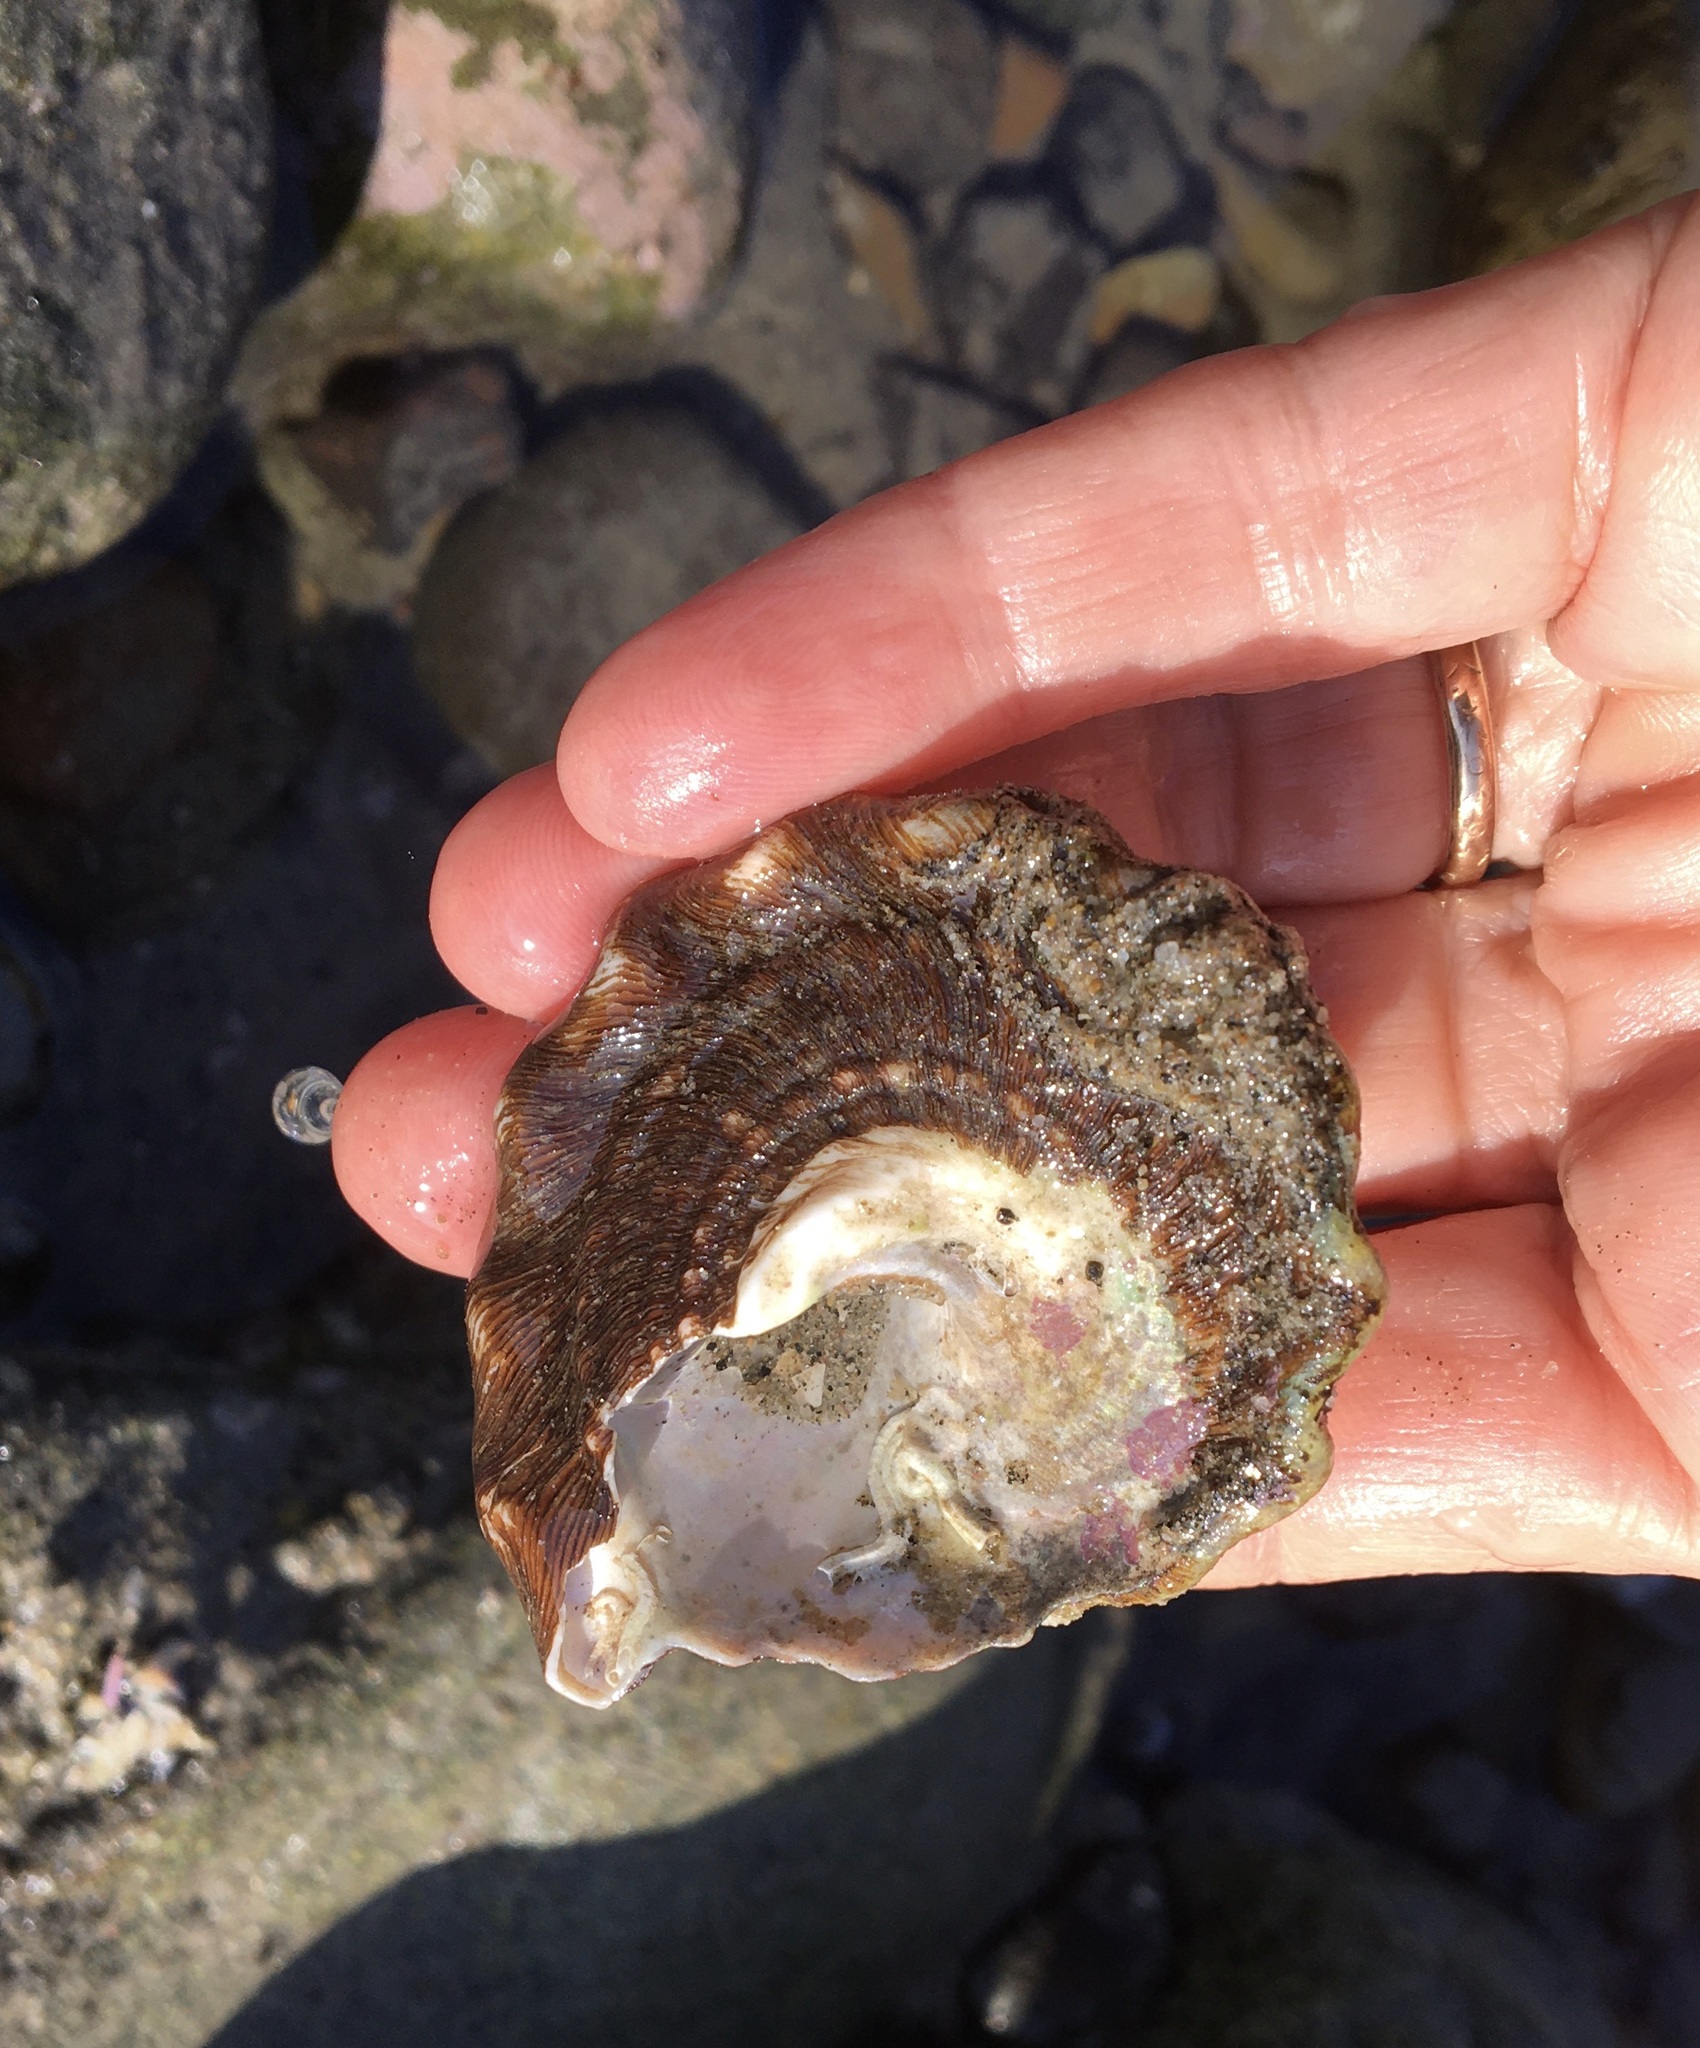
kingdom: Animalia
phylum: Mollusca
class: Gastropoda
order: Trochida
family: Turbinidae
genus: Megastraea
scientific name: Megastraea undosa
